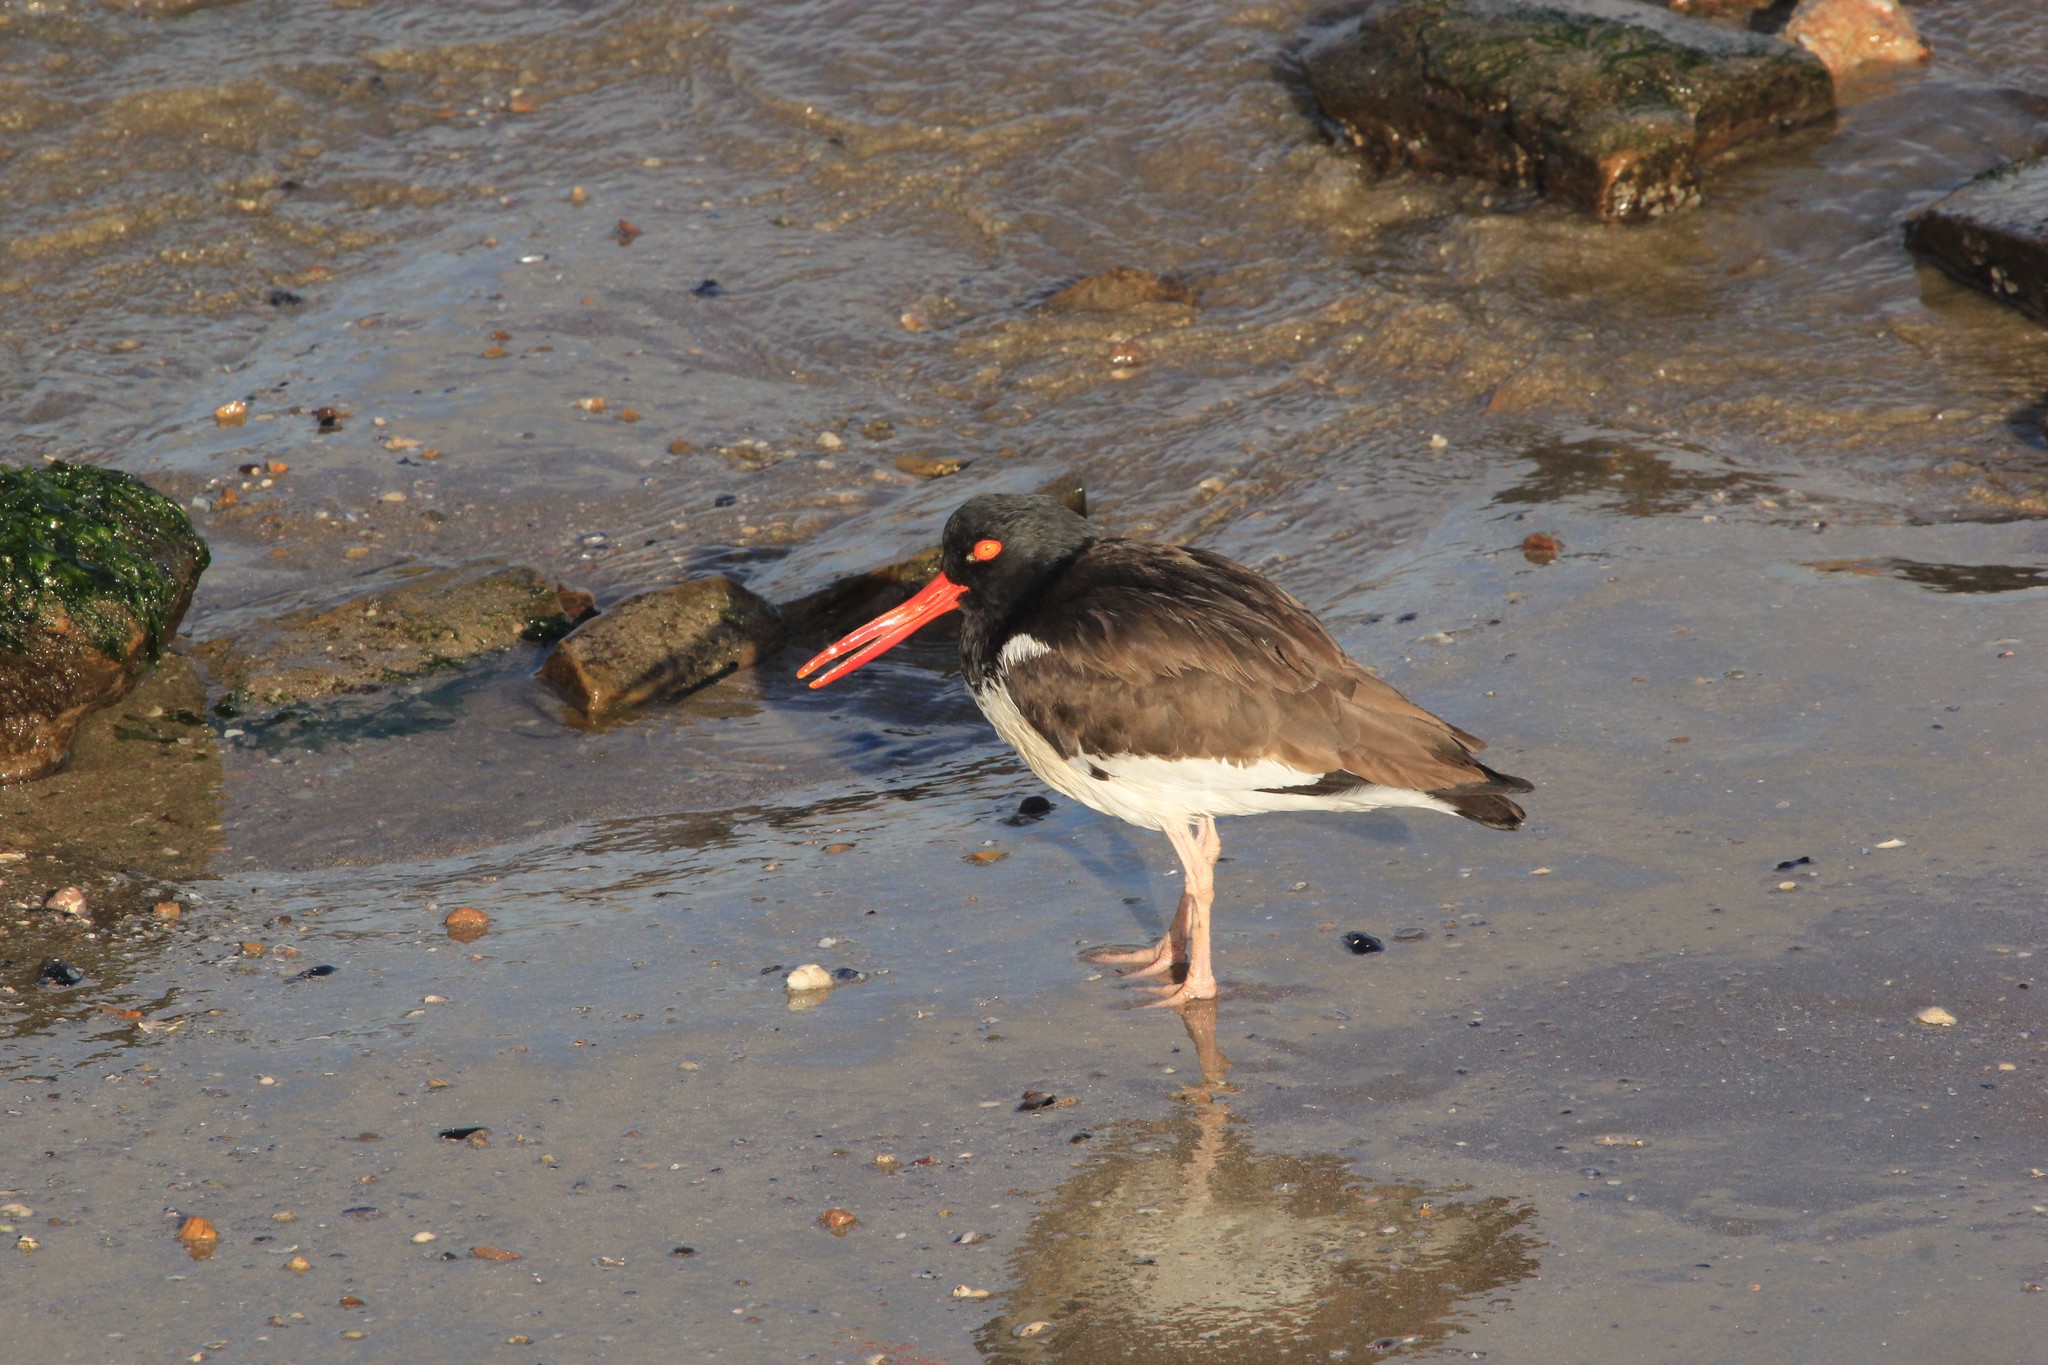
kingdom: Animalia
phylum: Chordata
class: Aves
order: Charadriiformes
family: Haematopodidae
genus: Haematopus
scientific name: Haematopus palliatus
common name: American oystercatcher
